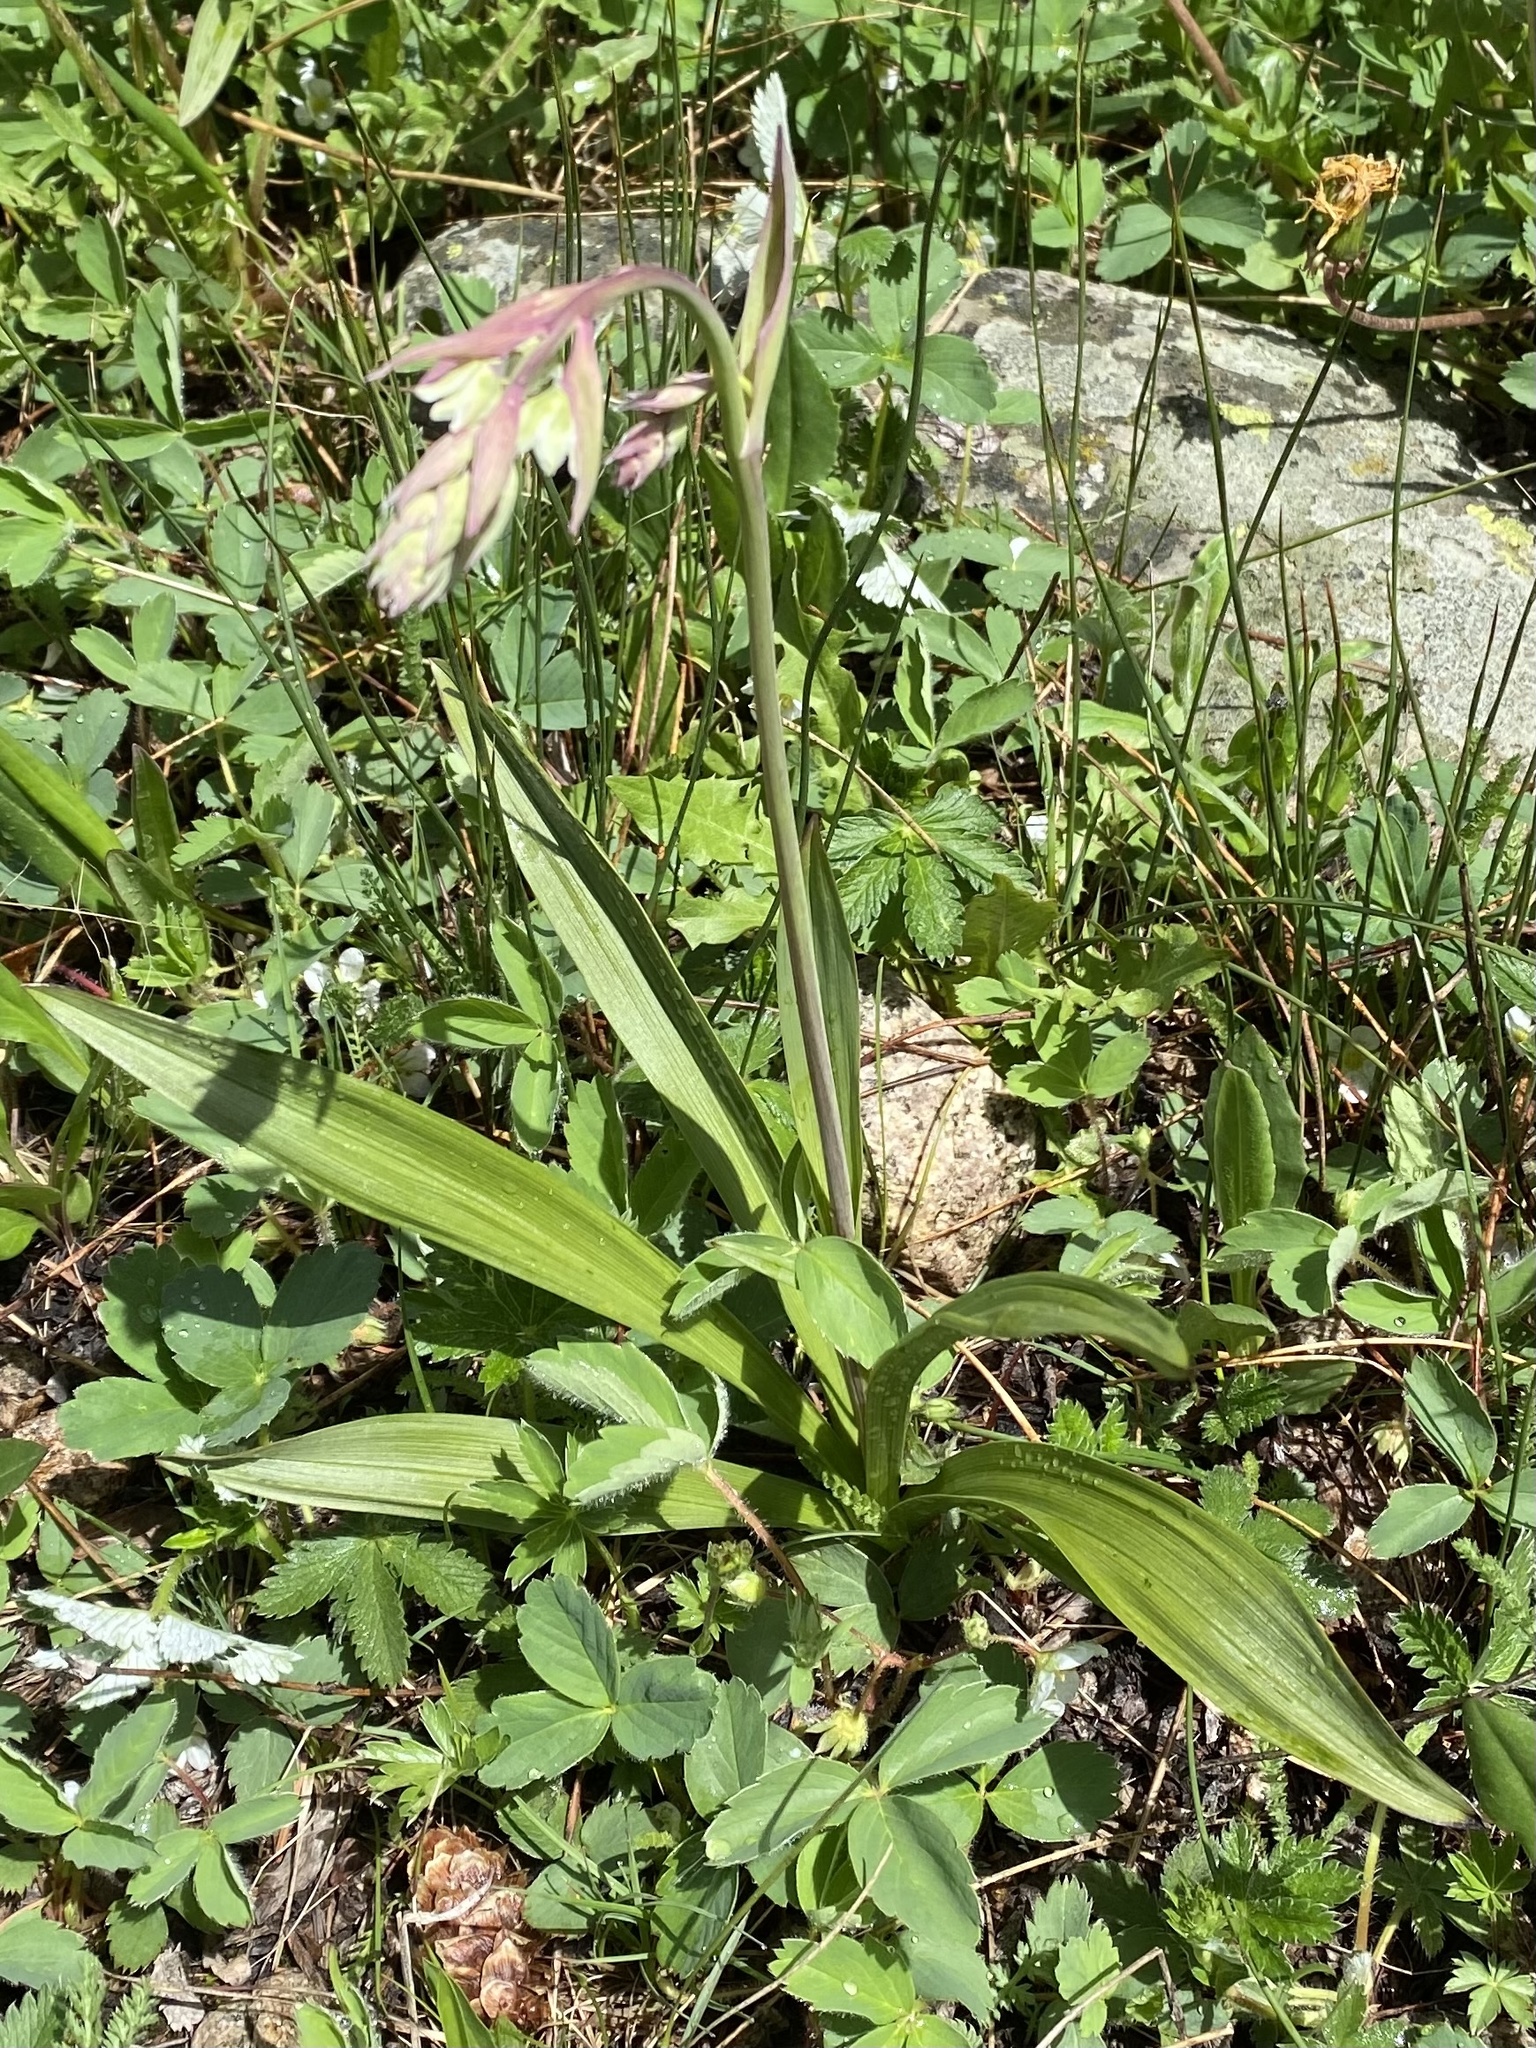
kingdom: Plantae
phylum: Tracheophyta
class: Liliopsida
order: Liliales
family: Melanthiaceae
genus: Anticlea
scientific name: Anticlea elegans
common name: Mountain death camas
